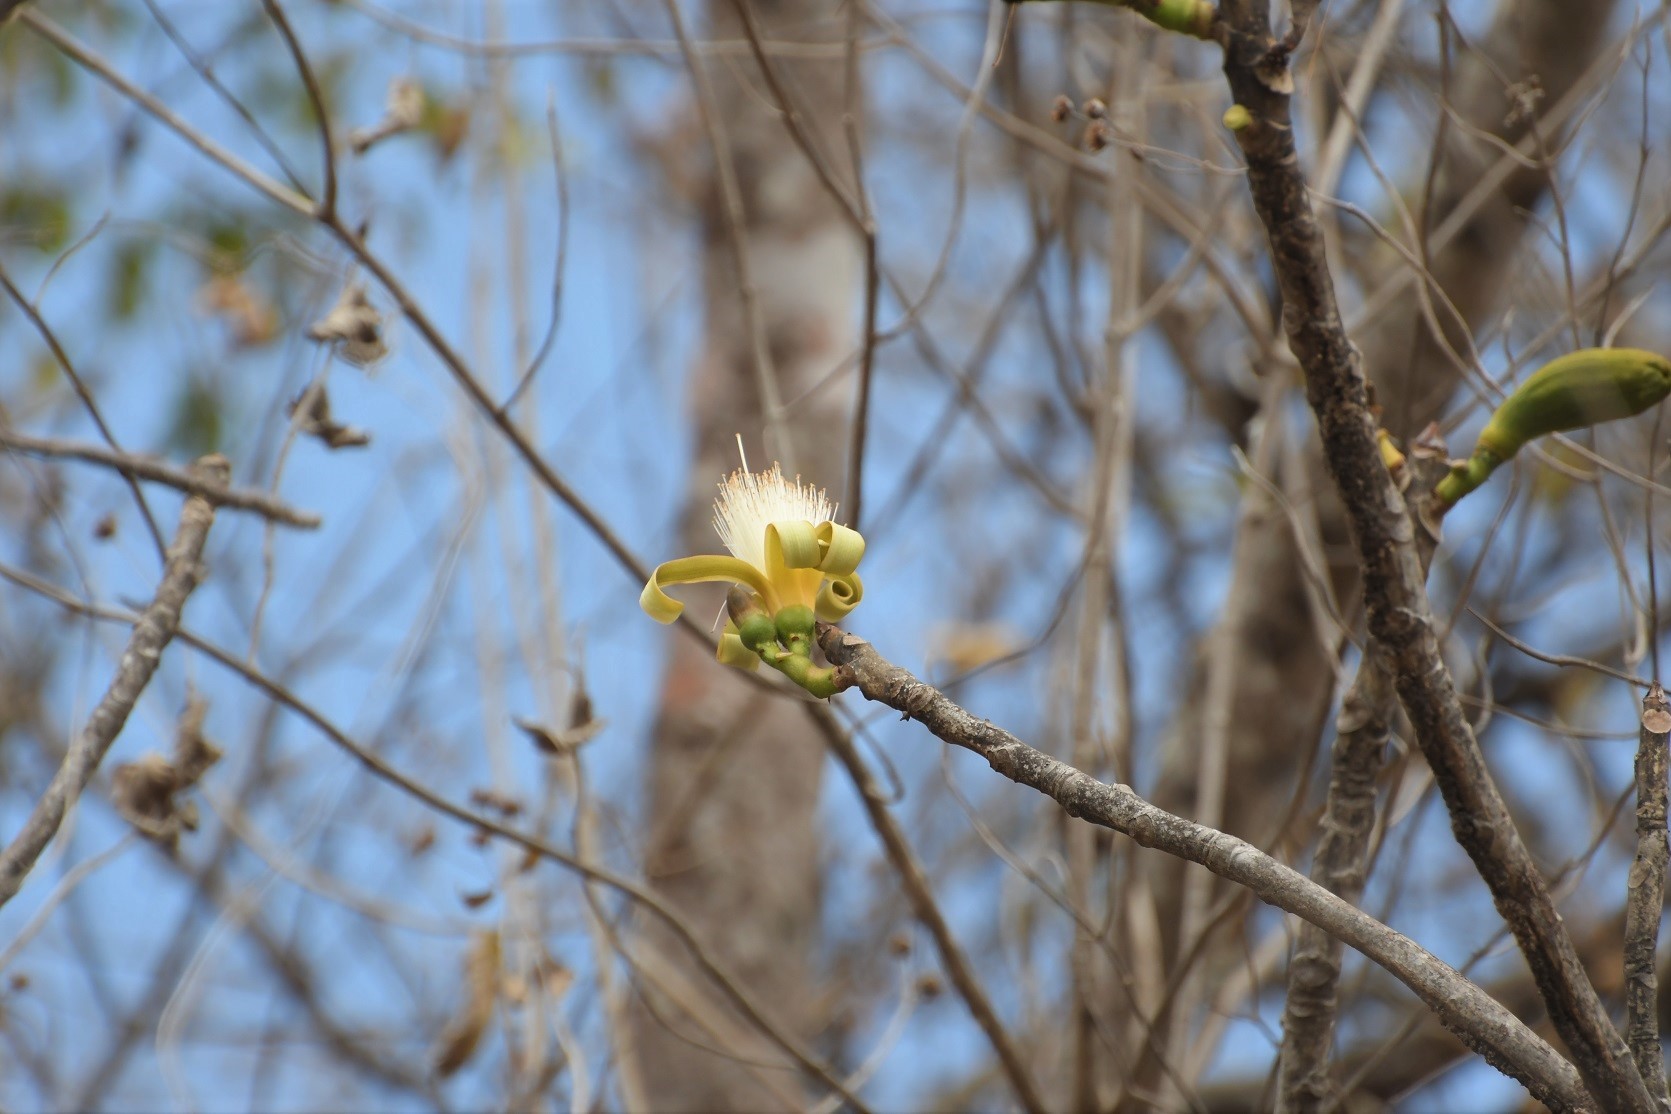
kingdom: Plantae
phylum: Tracheophyta
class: Magnoliopsida
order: Malvales
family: Malvaceae
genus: Pseudobombax
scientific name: Pseudobombax palmeri
